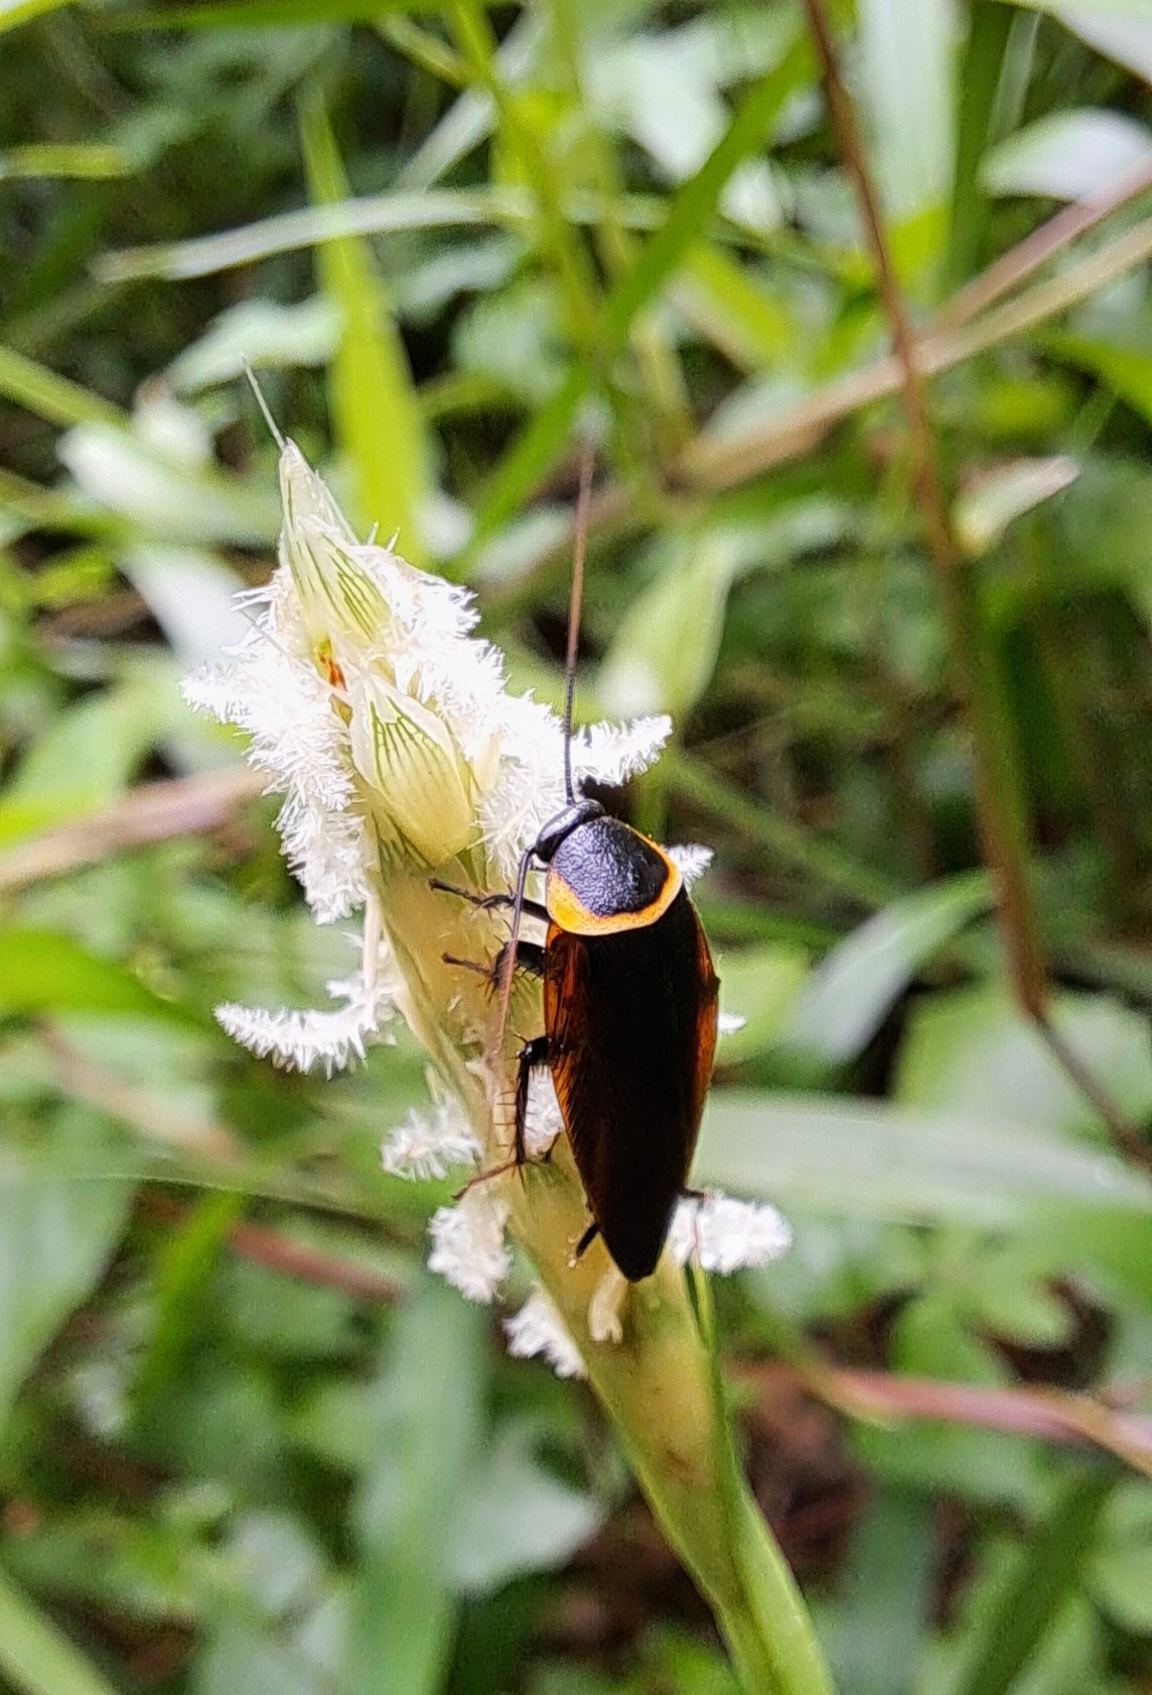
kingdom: Animalia
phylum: Arthropoda
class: Insecta
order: Blattodea
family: Ectobiidae
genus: Hemithyrsocera
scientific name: Hemithyrsocera palliata
